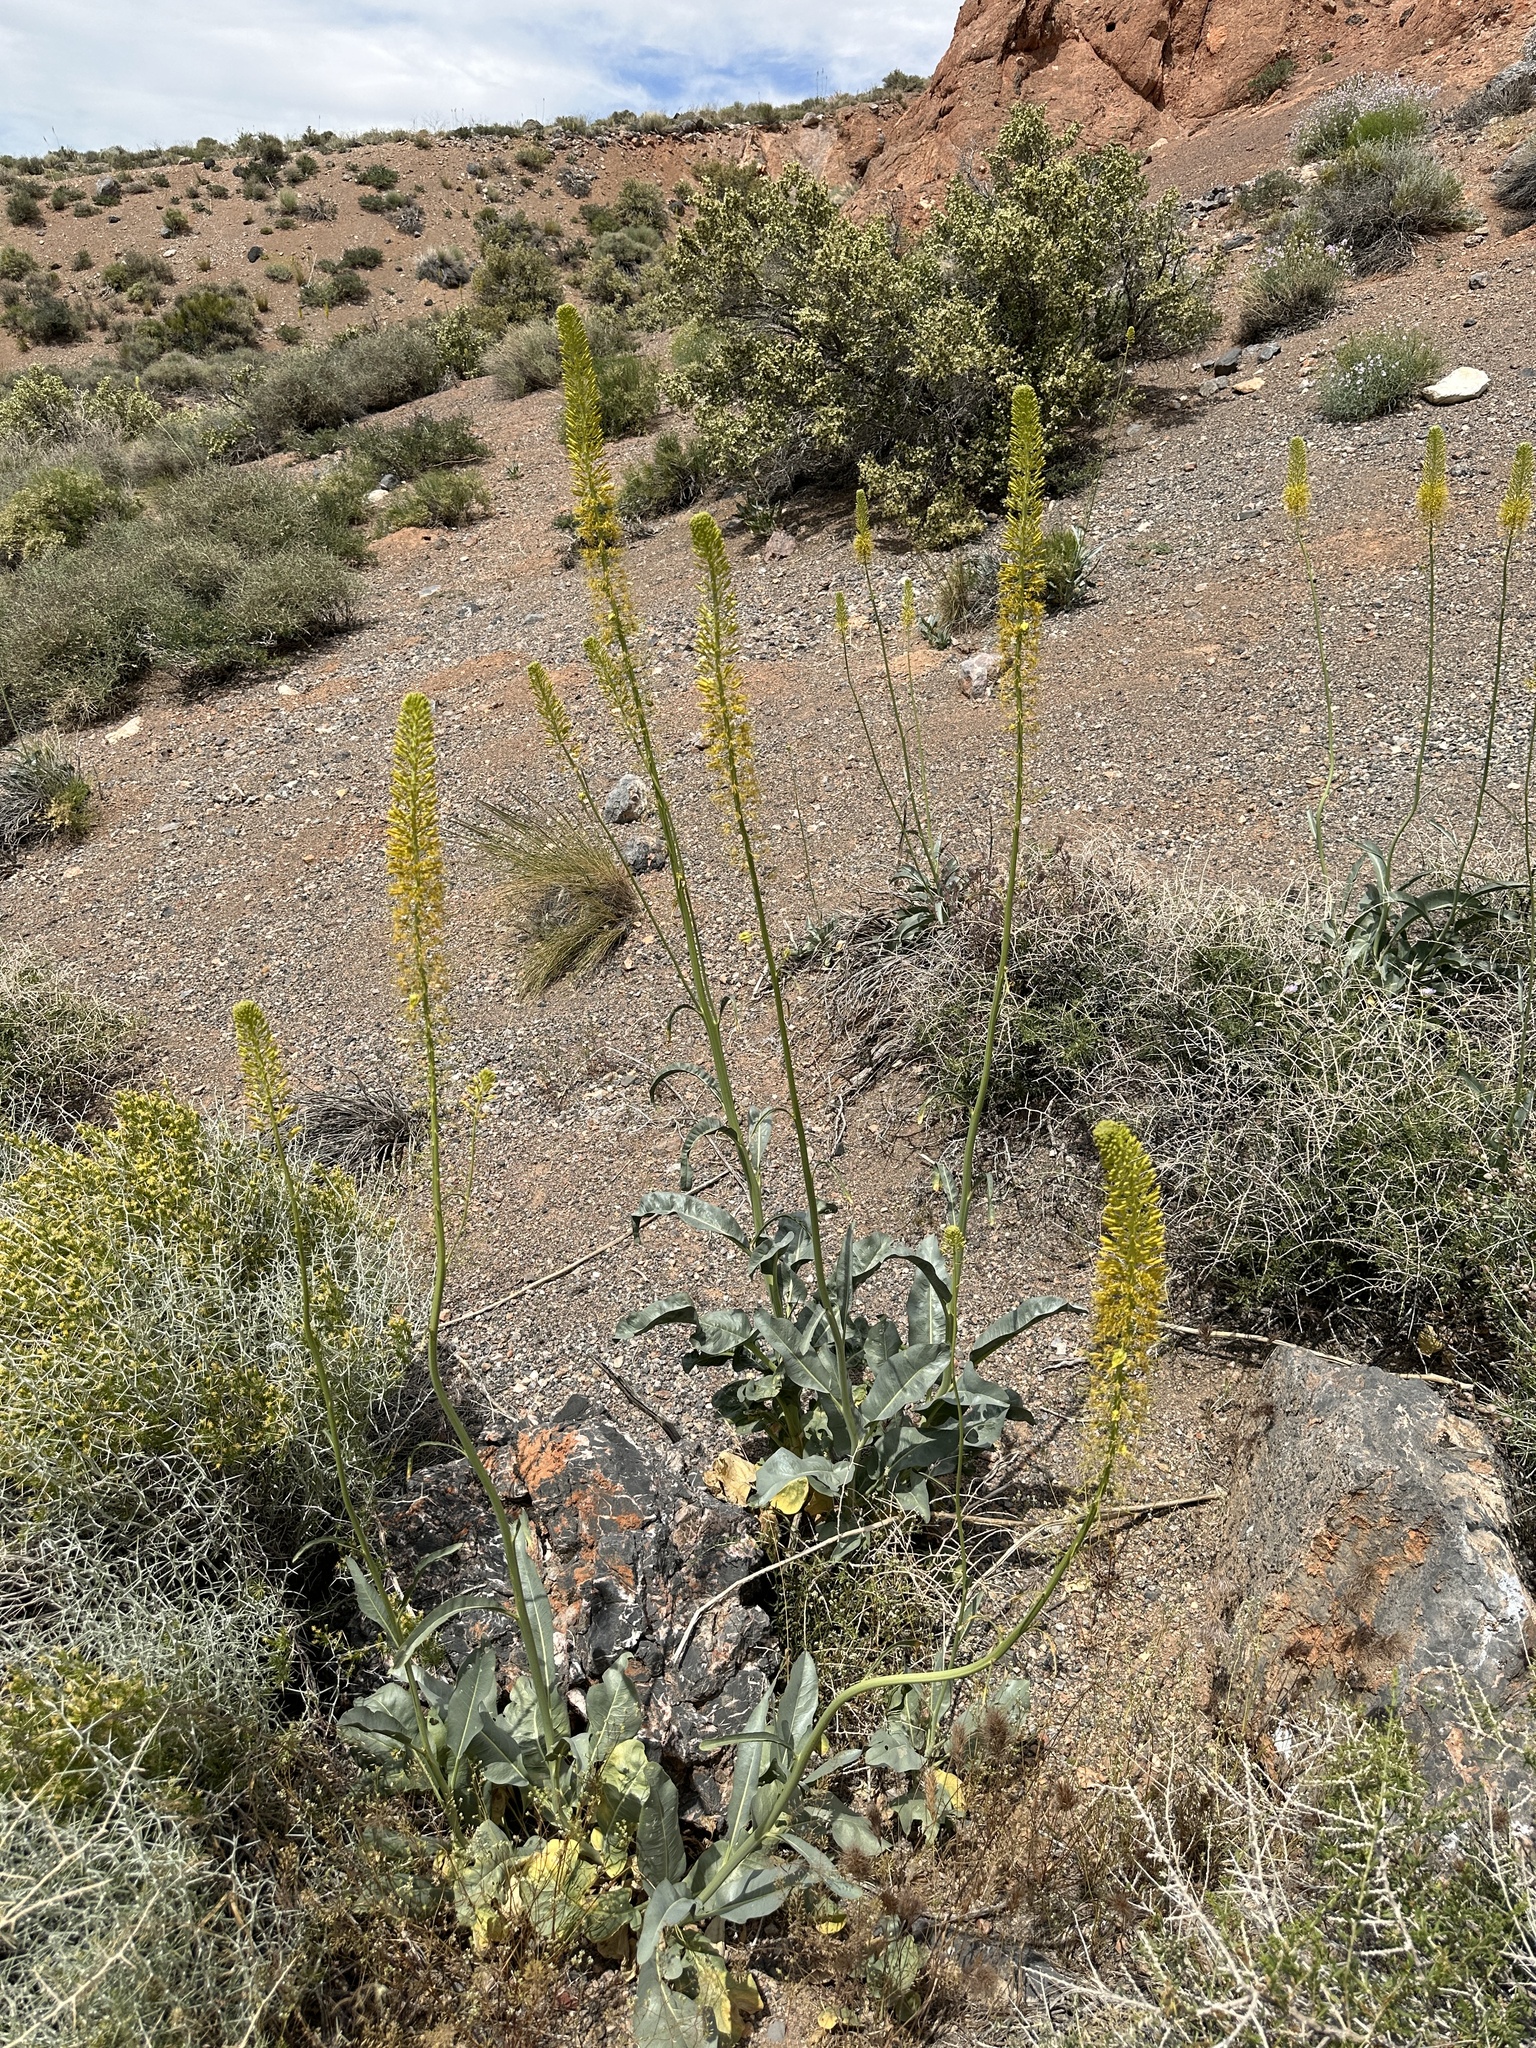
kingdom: Plantae
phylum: Tracheophyta
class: Magnoliopsida
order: Brassicales
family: Brassicaceae
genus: Stanleya
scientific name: Stanleya elata
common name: Panamint prince's plume
